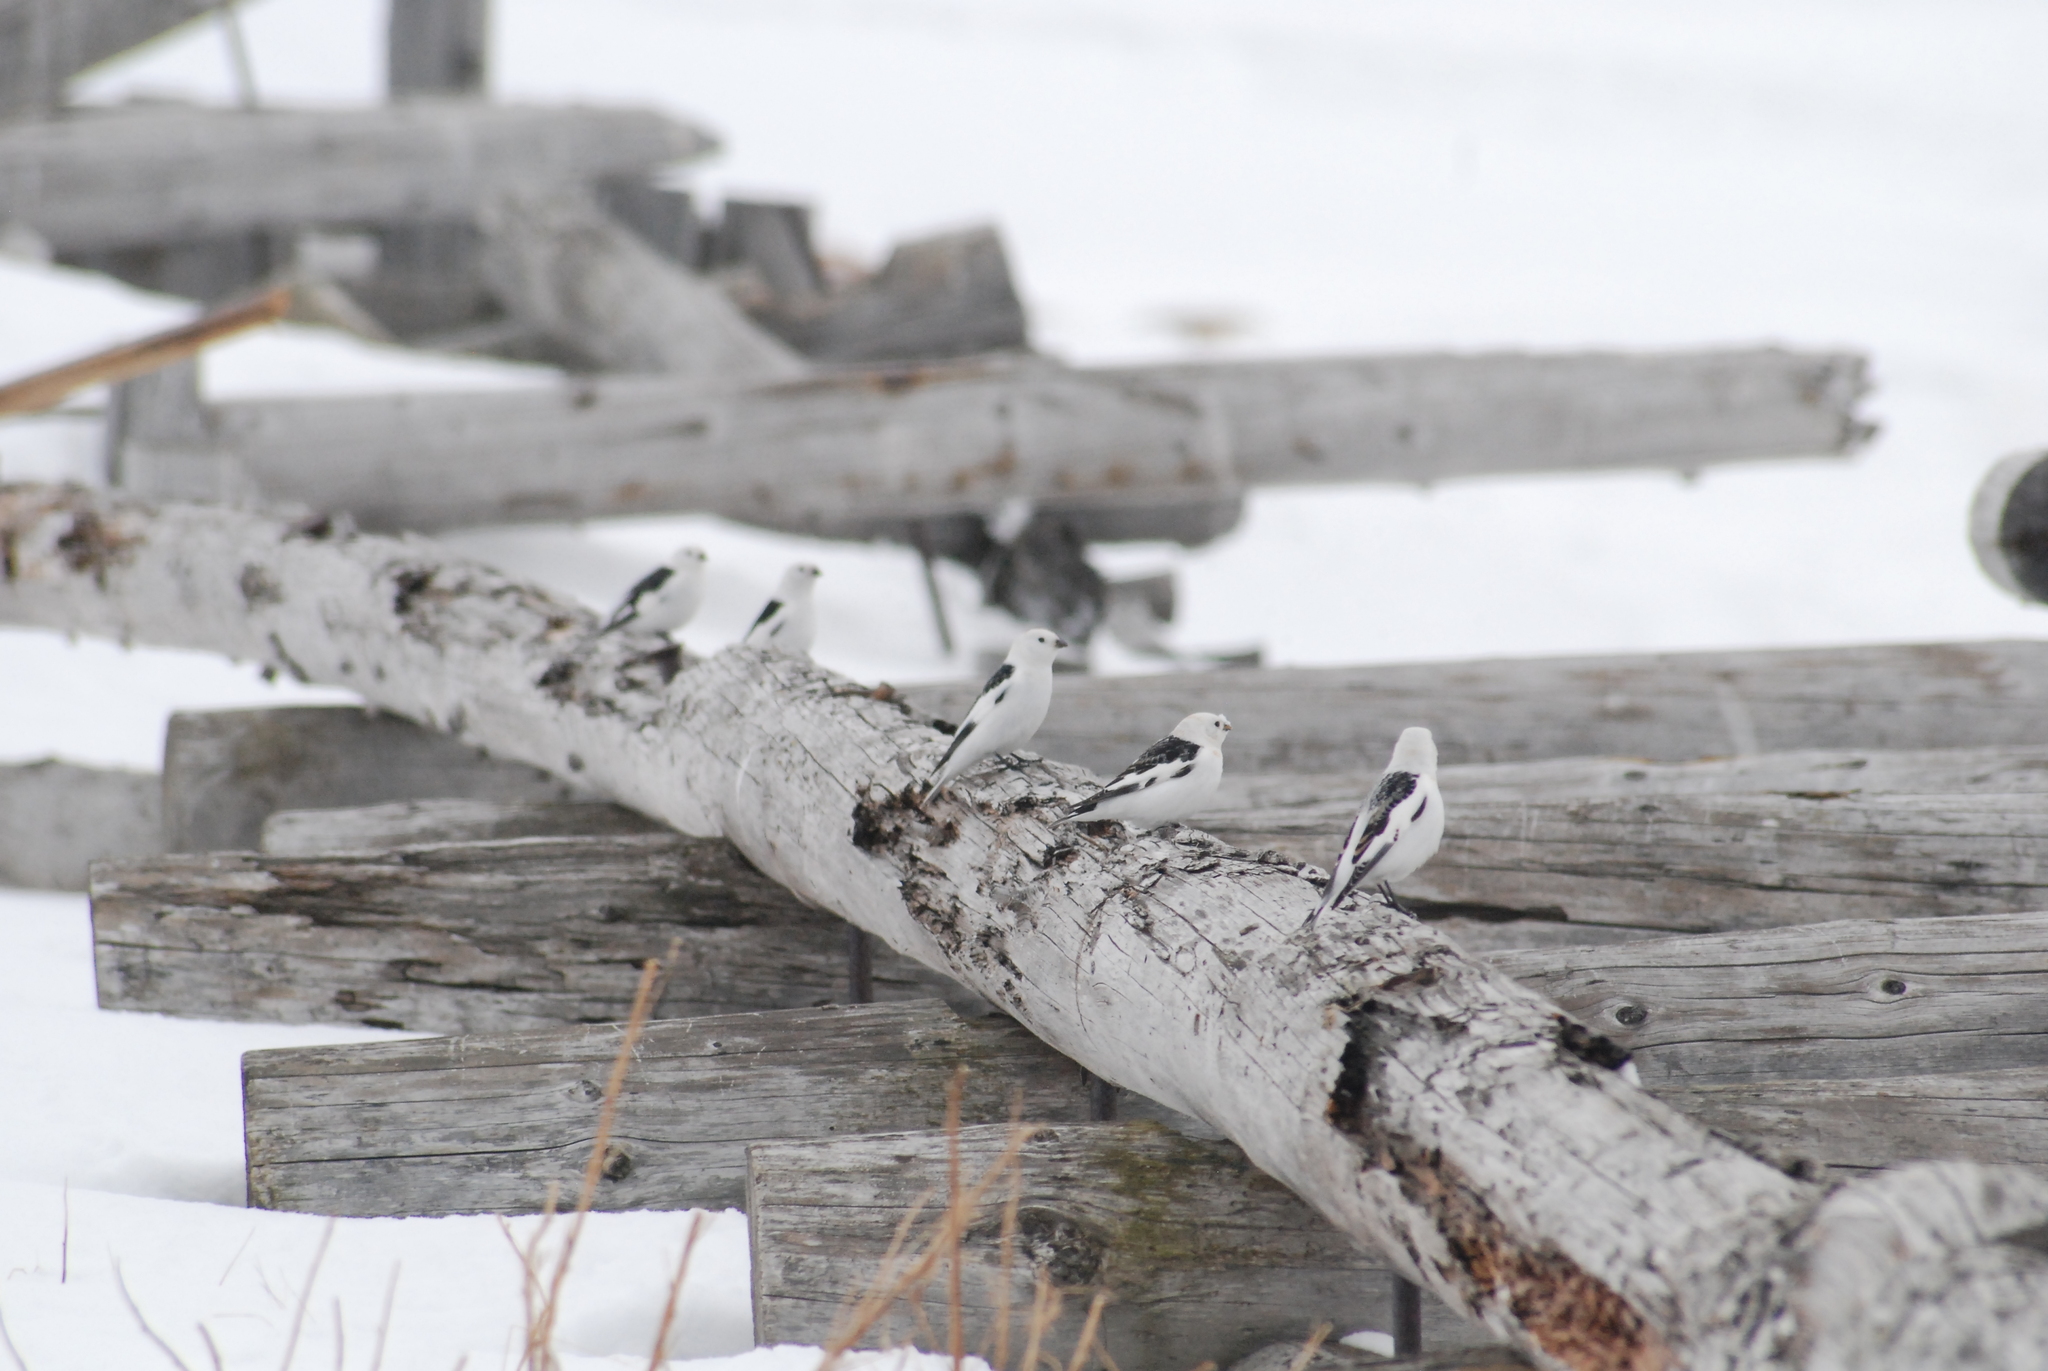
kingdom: Animalia
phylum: Chordata
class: Aves
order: Passeriformes
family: Calcariidae
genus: Plectrophenax
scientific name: Plectrophenax nivalis
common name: Snow bunting
